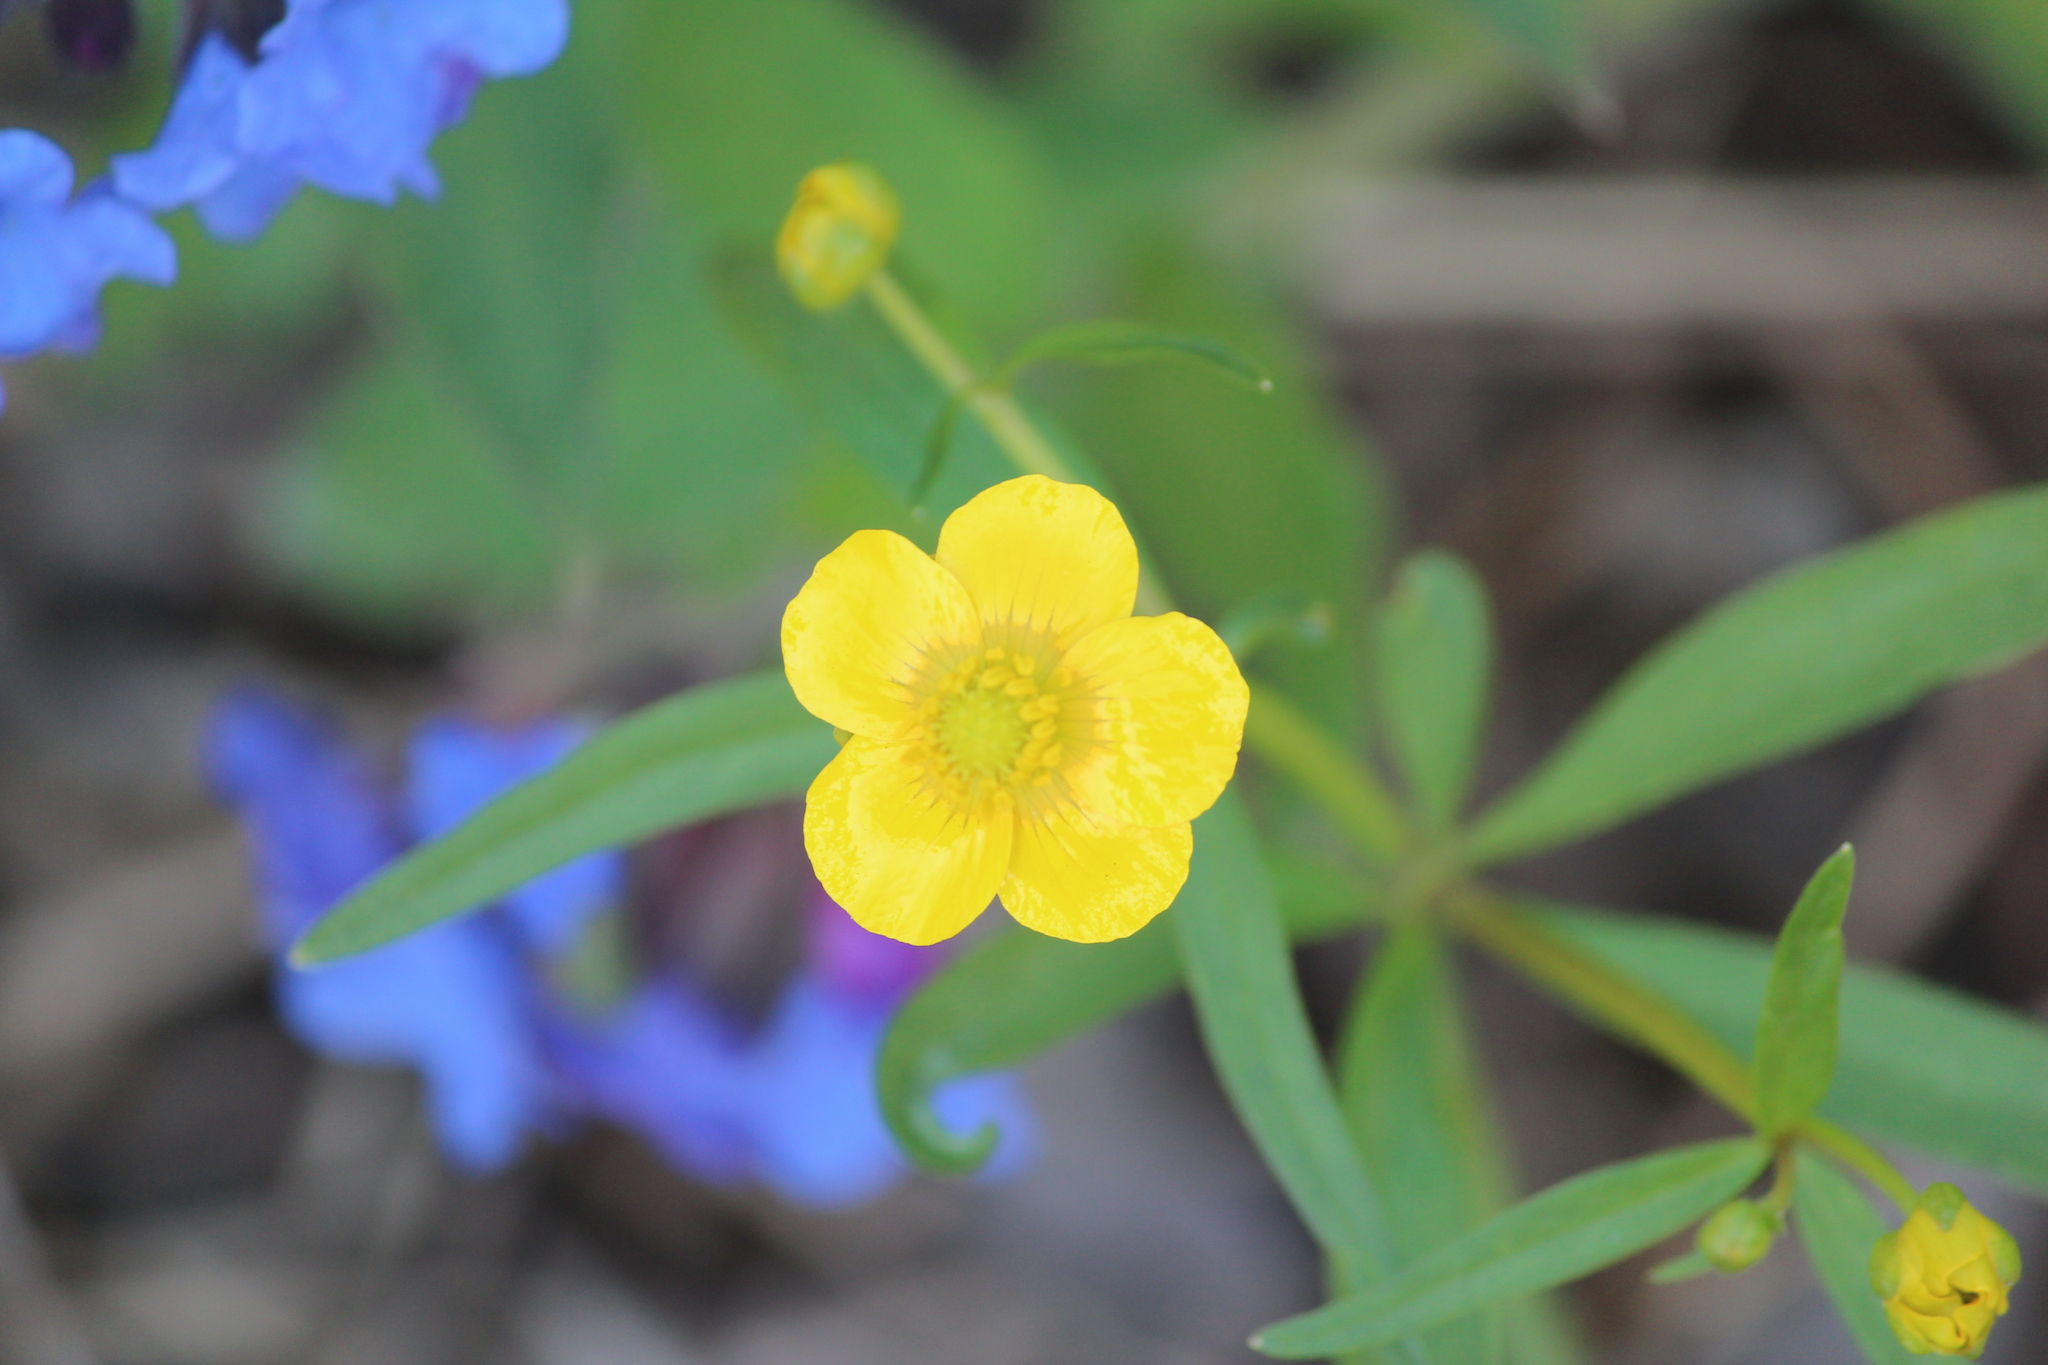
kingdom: Plantae
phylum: Tracheophyta
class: Magnoliopsida
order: Ranunculales
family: Ranunculaceae
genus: Ranunculus
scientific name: Ranunculus monophyllus
